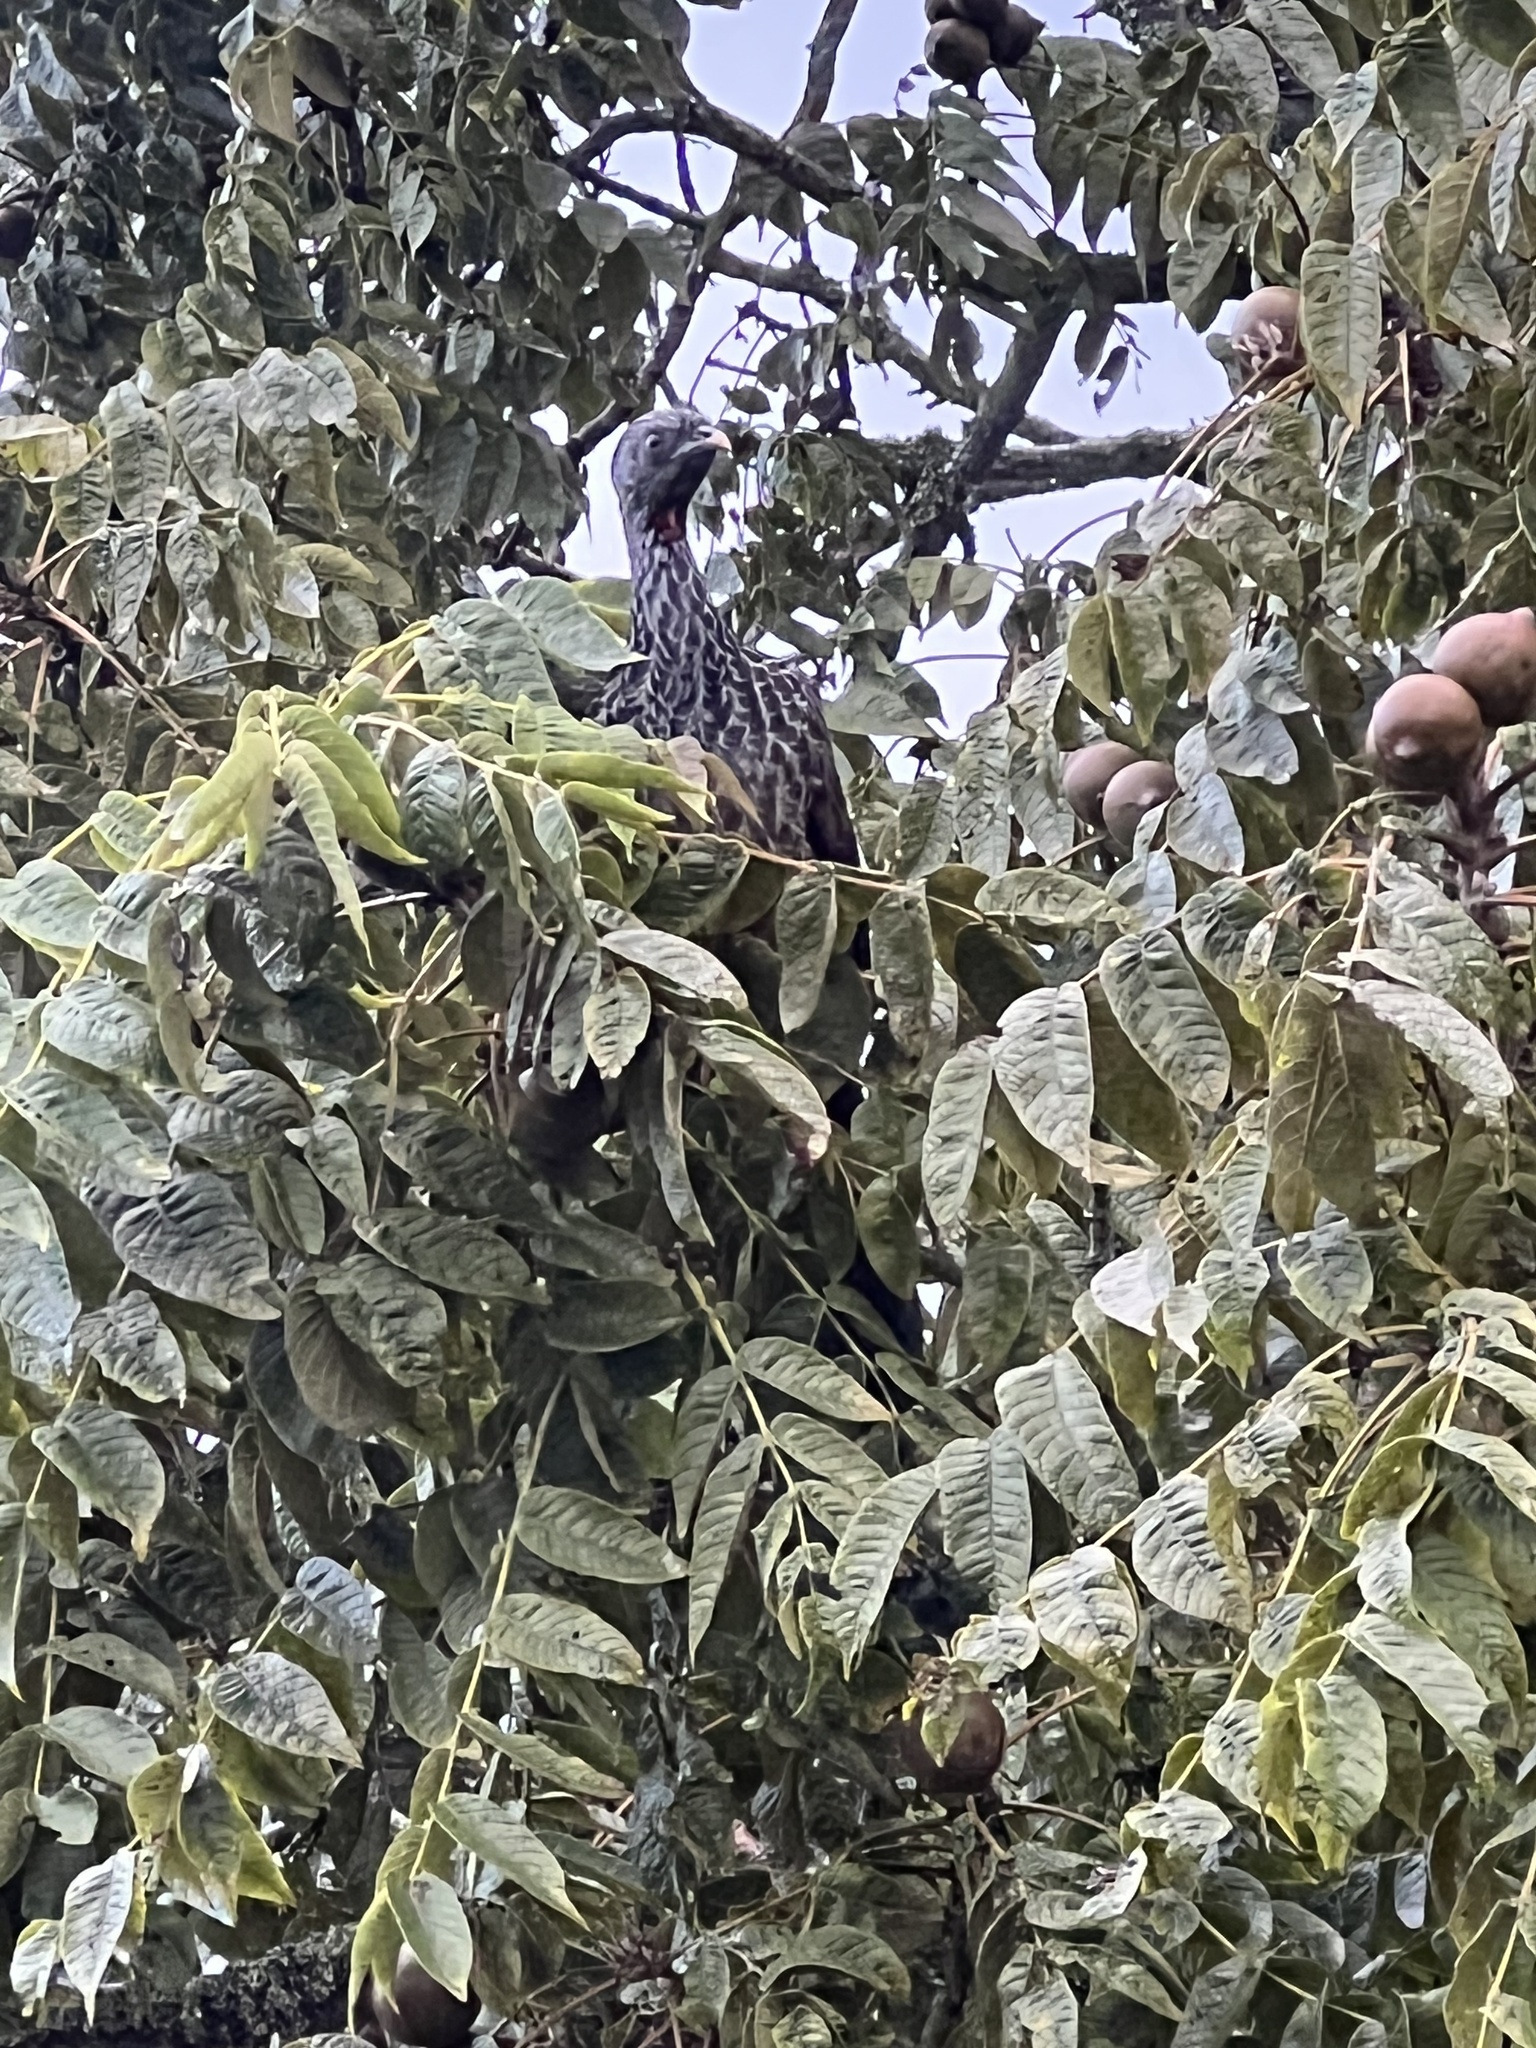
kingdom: Animalia
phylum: Chordata
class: Aves
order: Galliformes
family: Cracidae
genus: Penelope
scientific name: Penelope montagnii
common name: Andean guan
